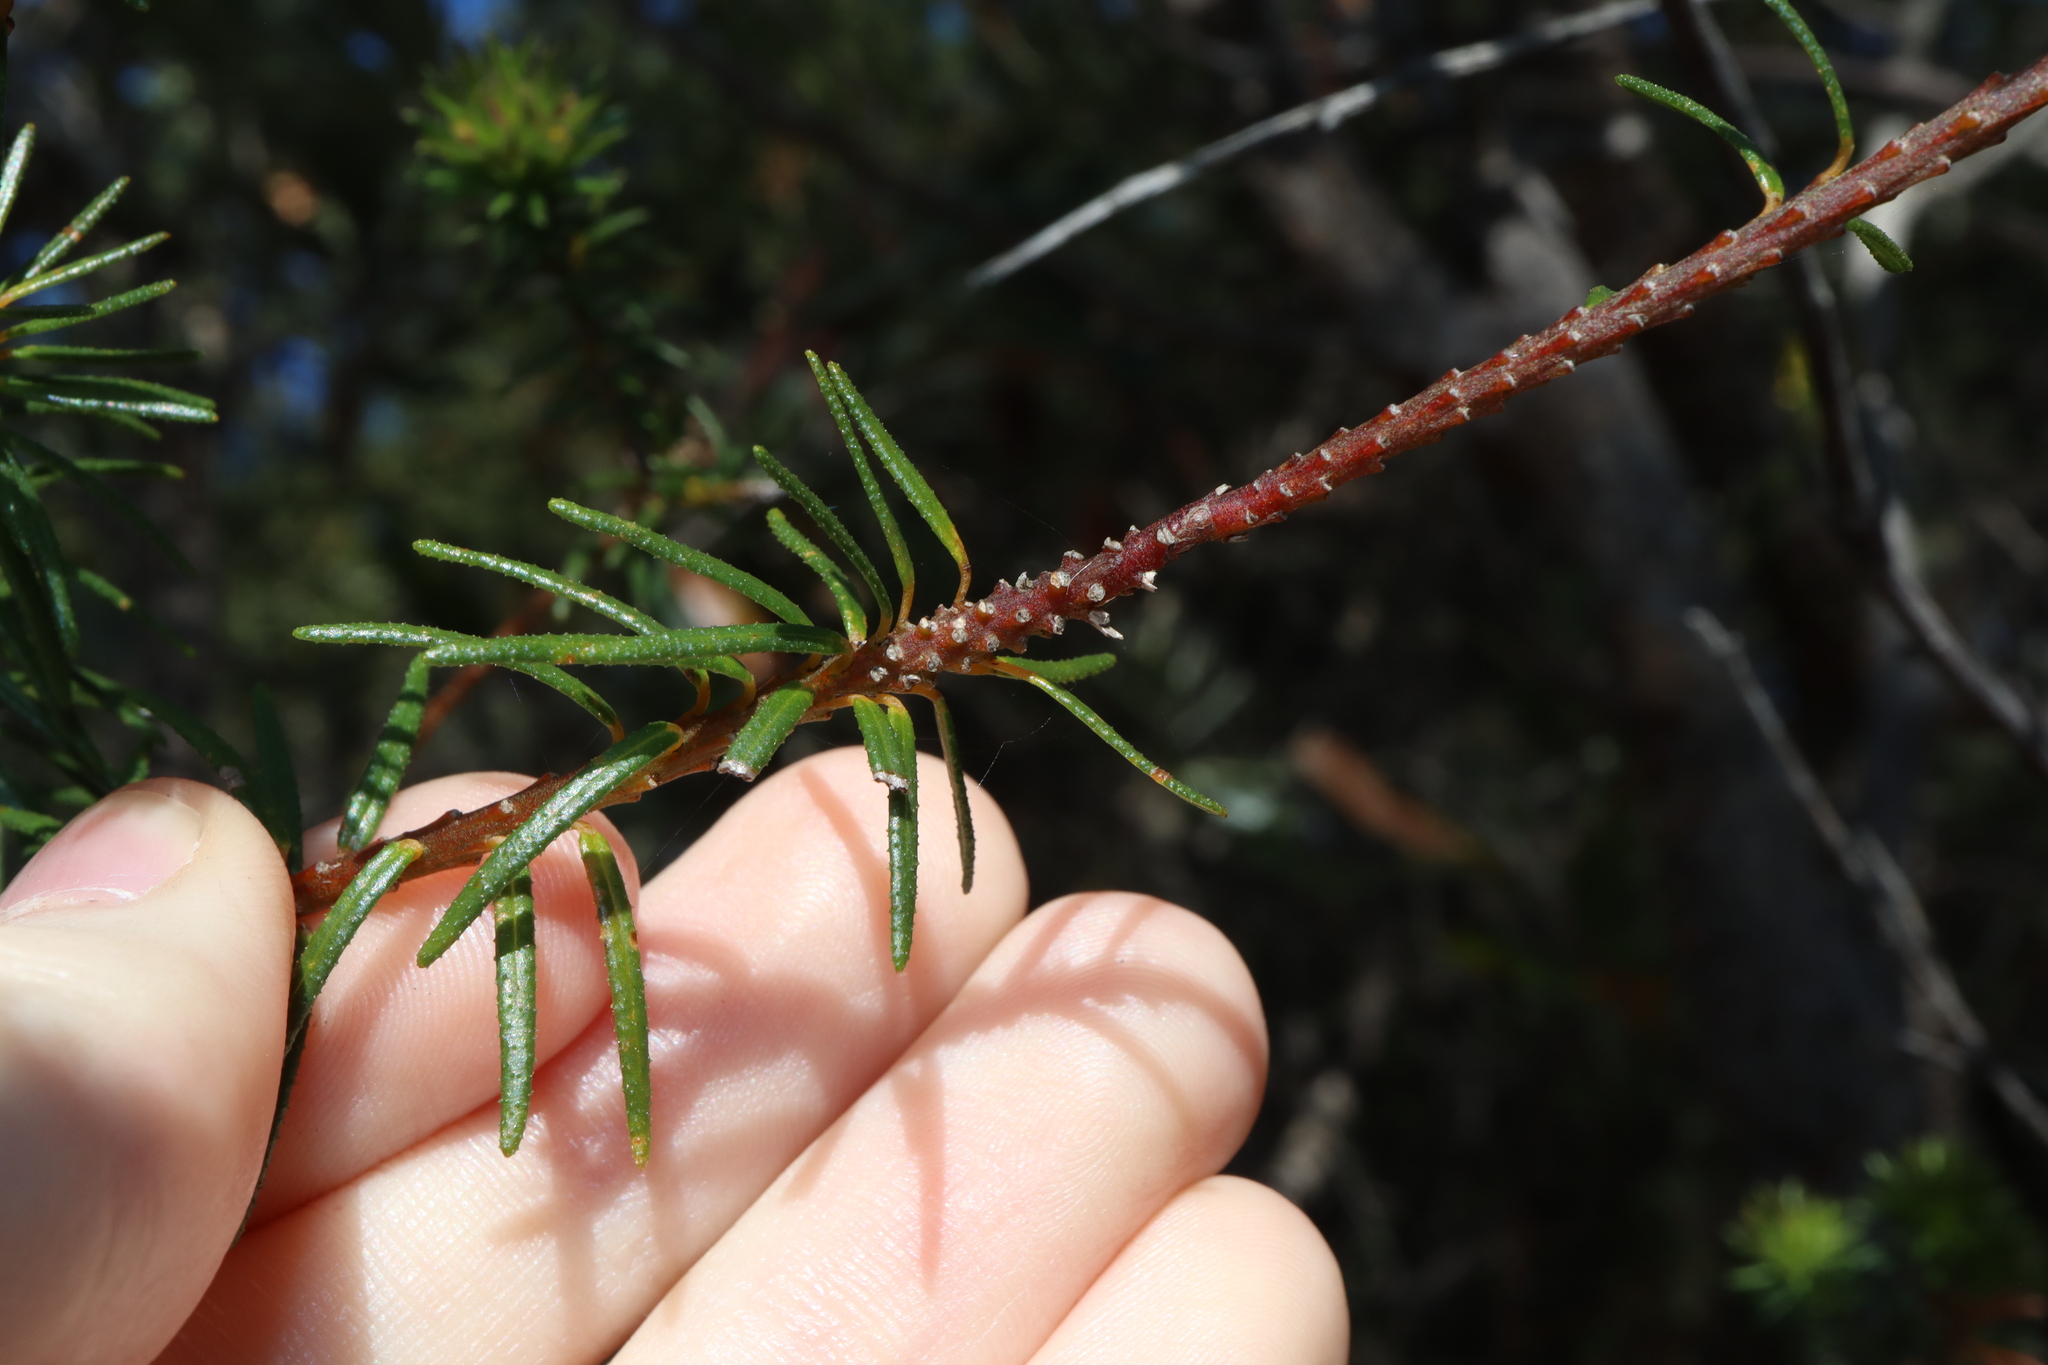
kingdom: Plantae
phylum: Tracheophyta
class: Magnoliopsida
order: Fabales
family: Fabaceae
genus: Phyllota
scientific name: Phyllota phylicoides
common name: Heath phyllota
